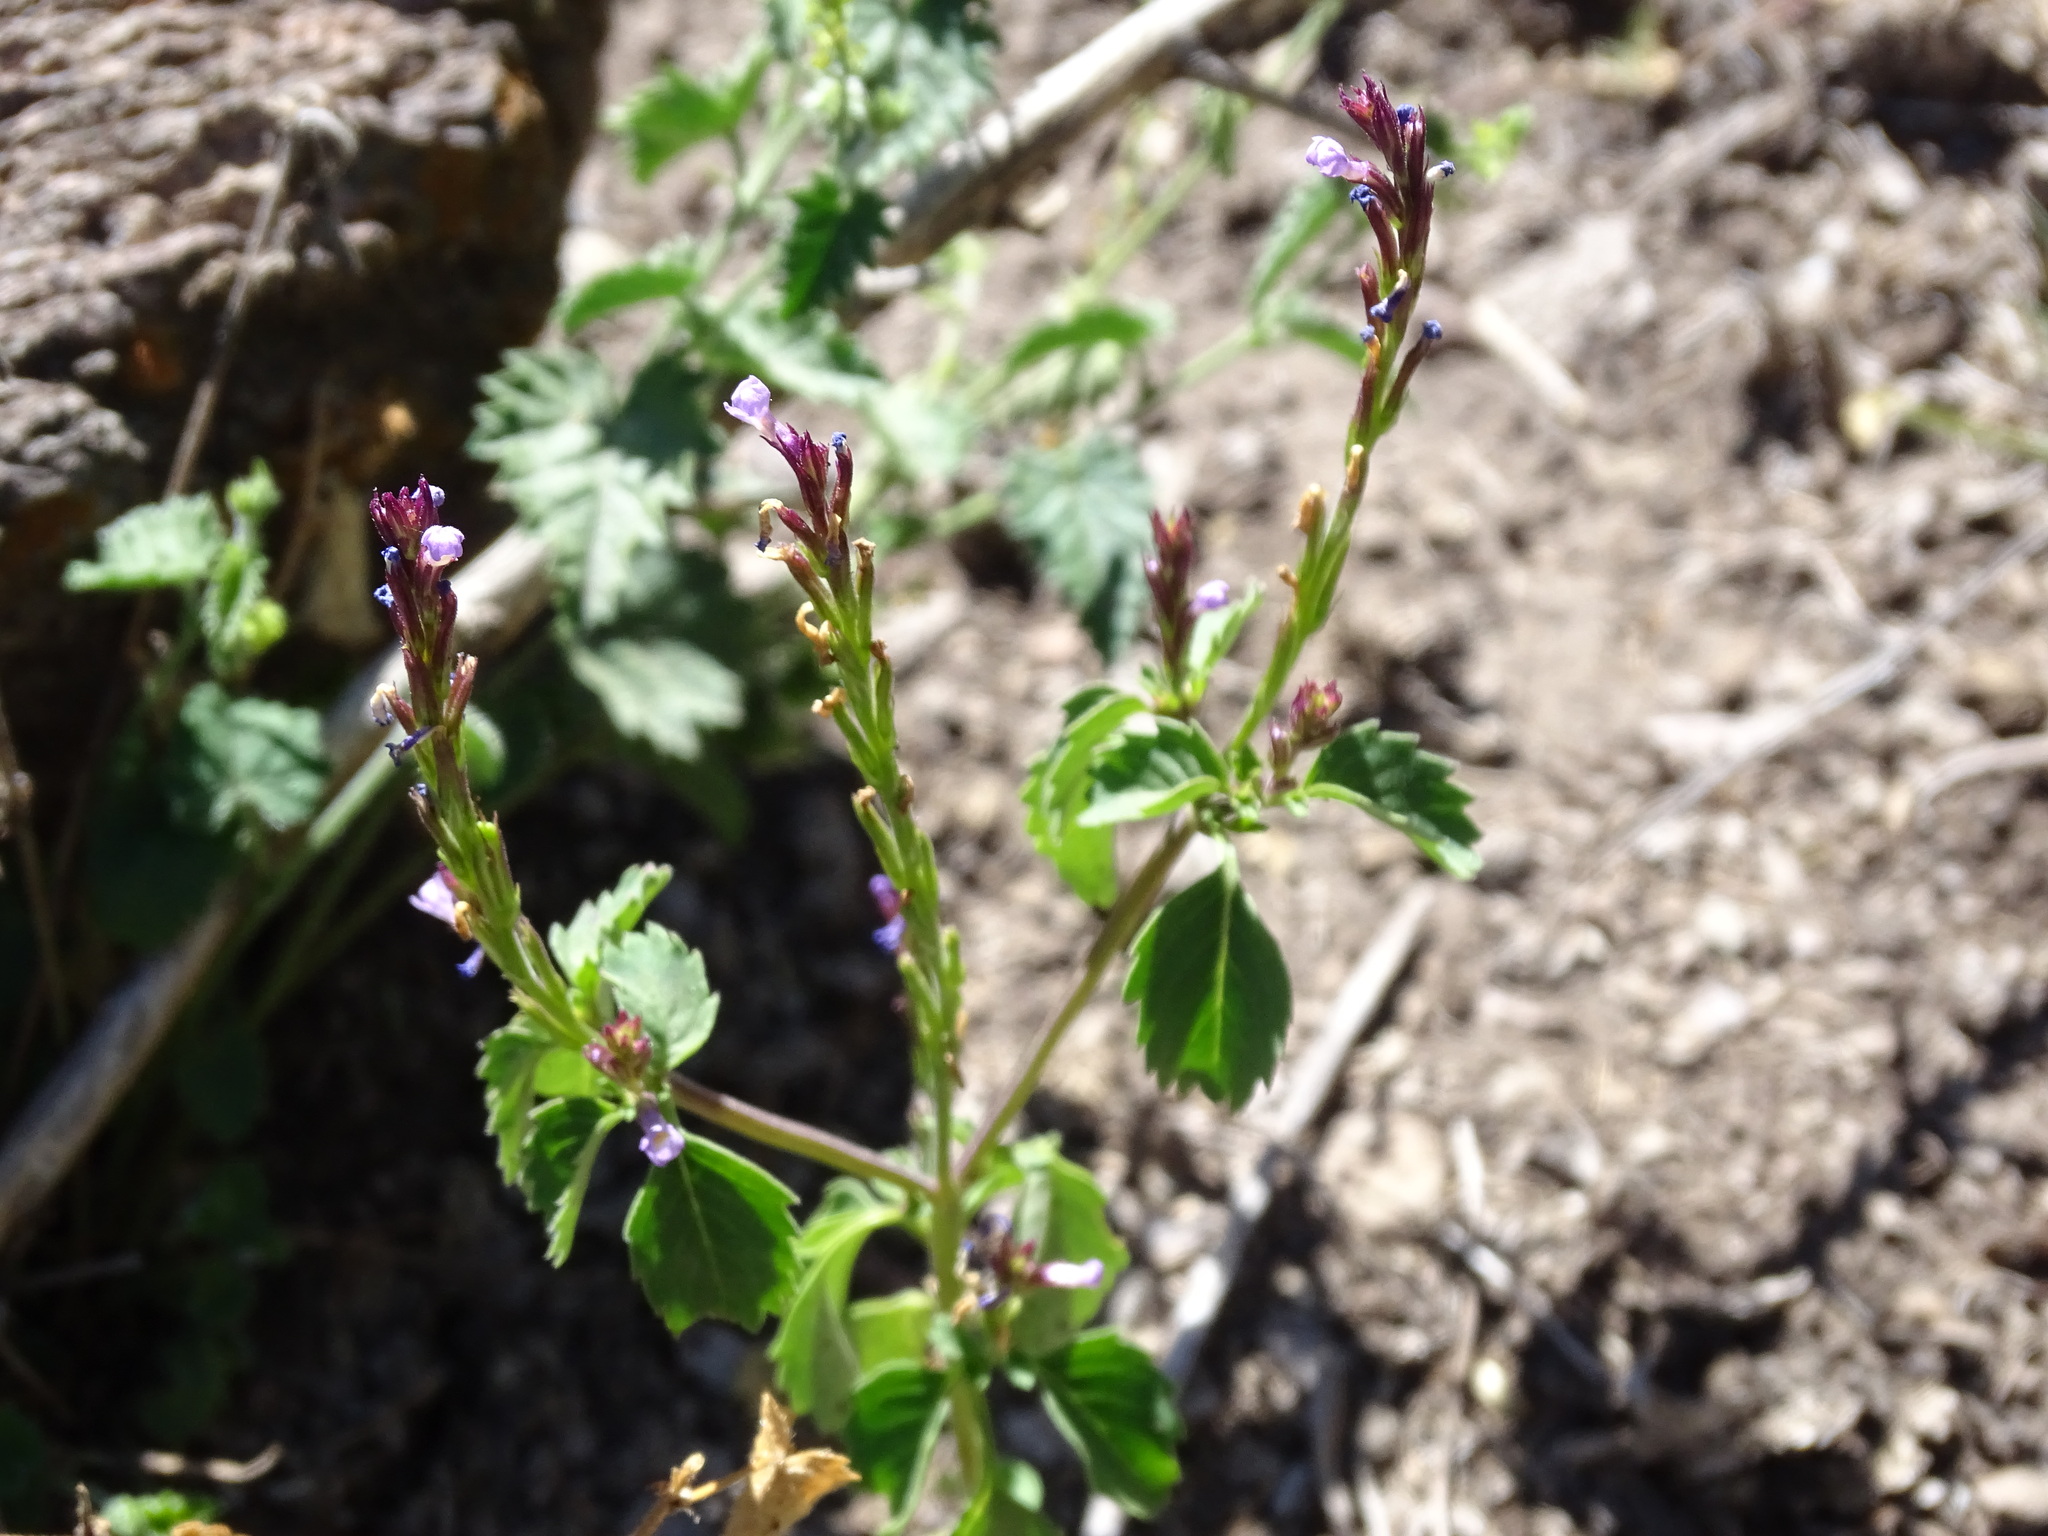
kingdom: Plantae
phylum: Tracheophyta
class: Magnoliopsida
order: Lamiales
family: Verbenaceae
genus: Bouchea
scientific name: Bouchea prismatica
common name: Vervine
